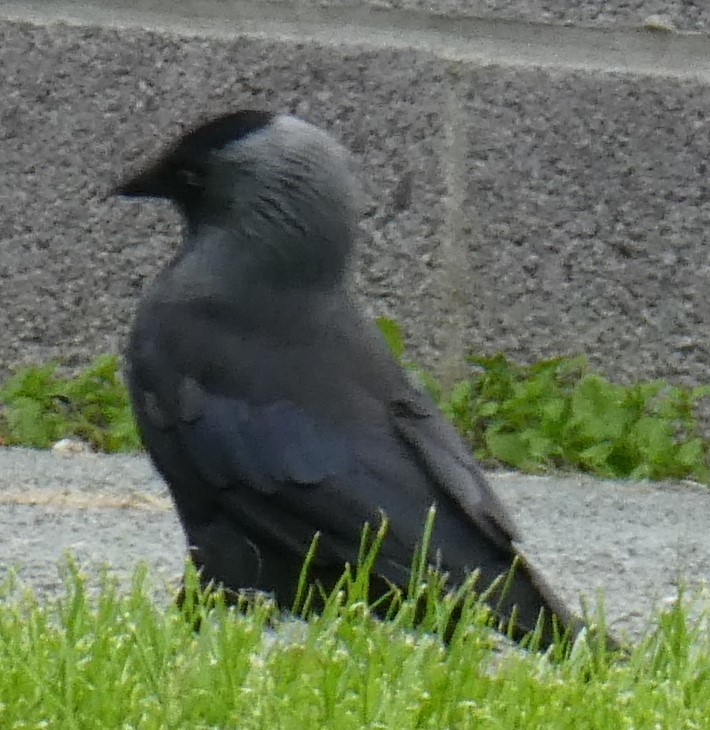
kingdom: Animalia
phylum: Chordata
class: Aves
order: Passeriformes
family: Corvidae
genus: Coloeus
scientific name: Coloeus monedula
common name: Western jackdaw
